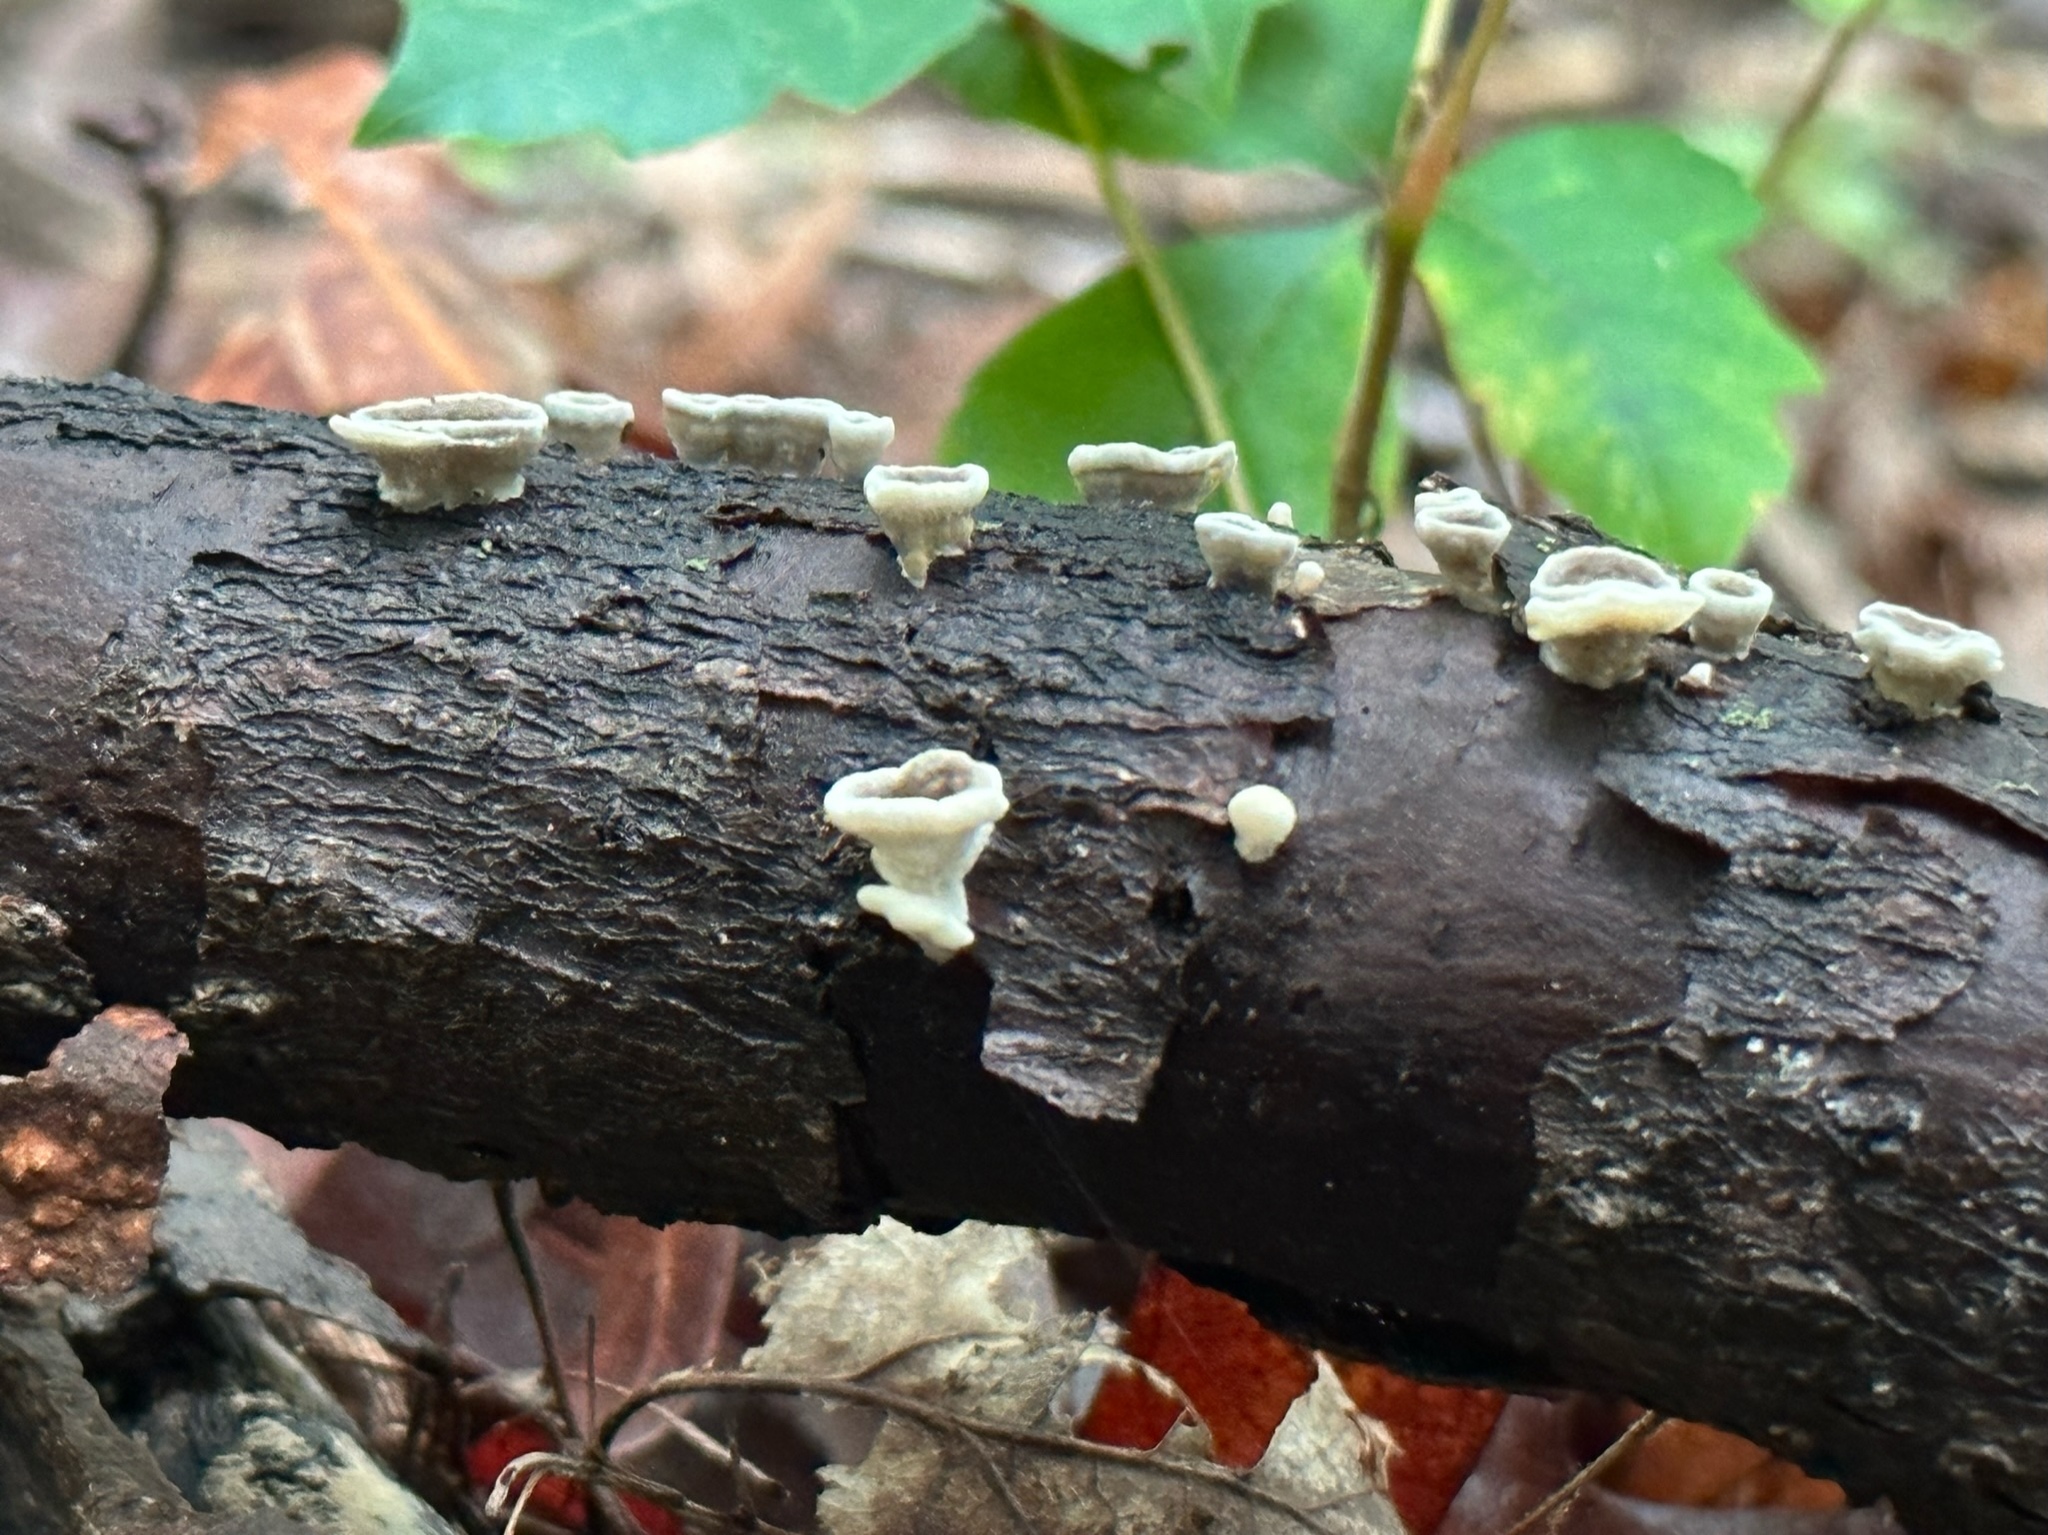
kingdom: Fungi
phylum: Basidiomycota
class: Agaricomycetes
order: Polyporales
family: Polyporaceae
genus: Poronidulus
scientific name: Poronidulus conchifer
